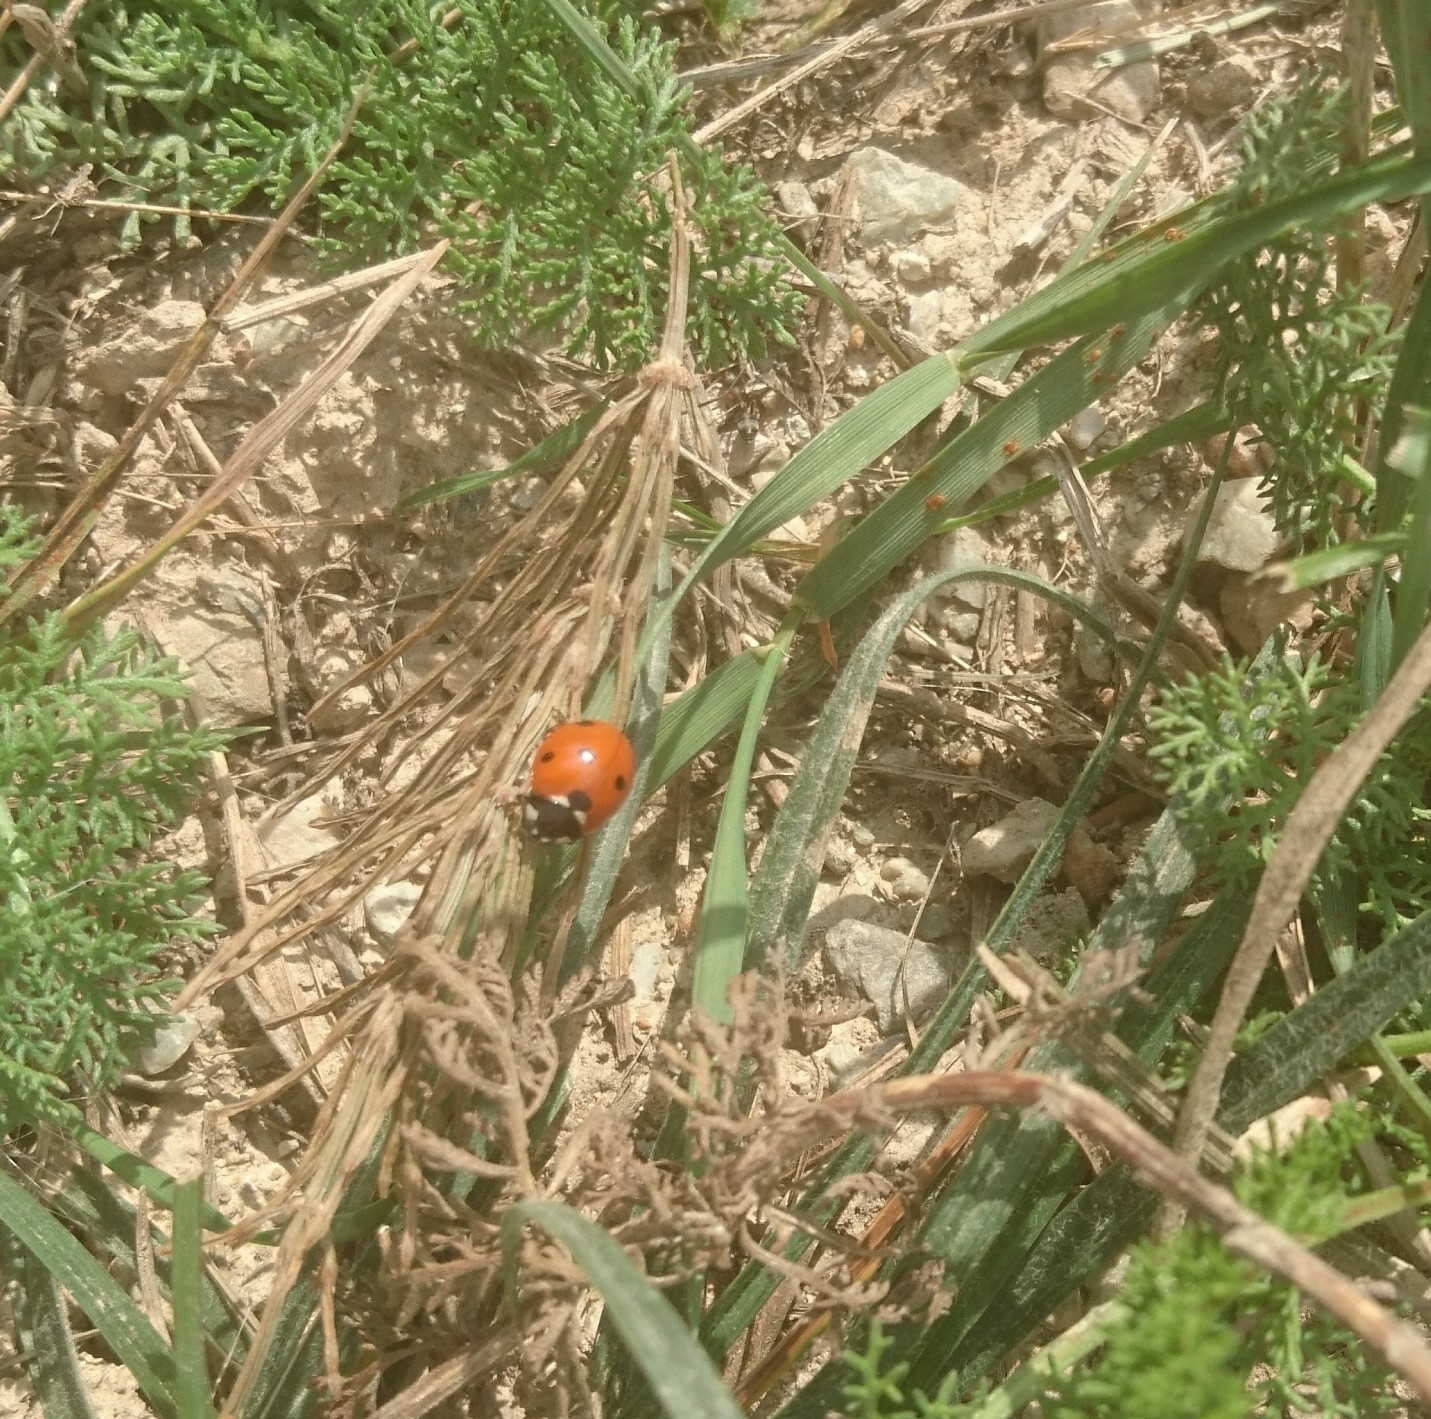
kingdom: Animalia
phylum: Arthropoda
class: Insecta
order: Coleoptera
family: Coccinellidae
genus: Coccinella
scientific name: Coccinella septempunctata
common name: Sevenspotted lady beetle
